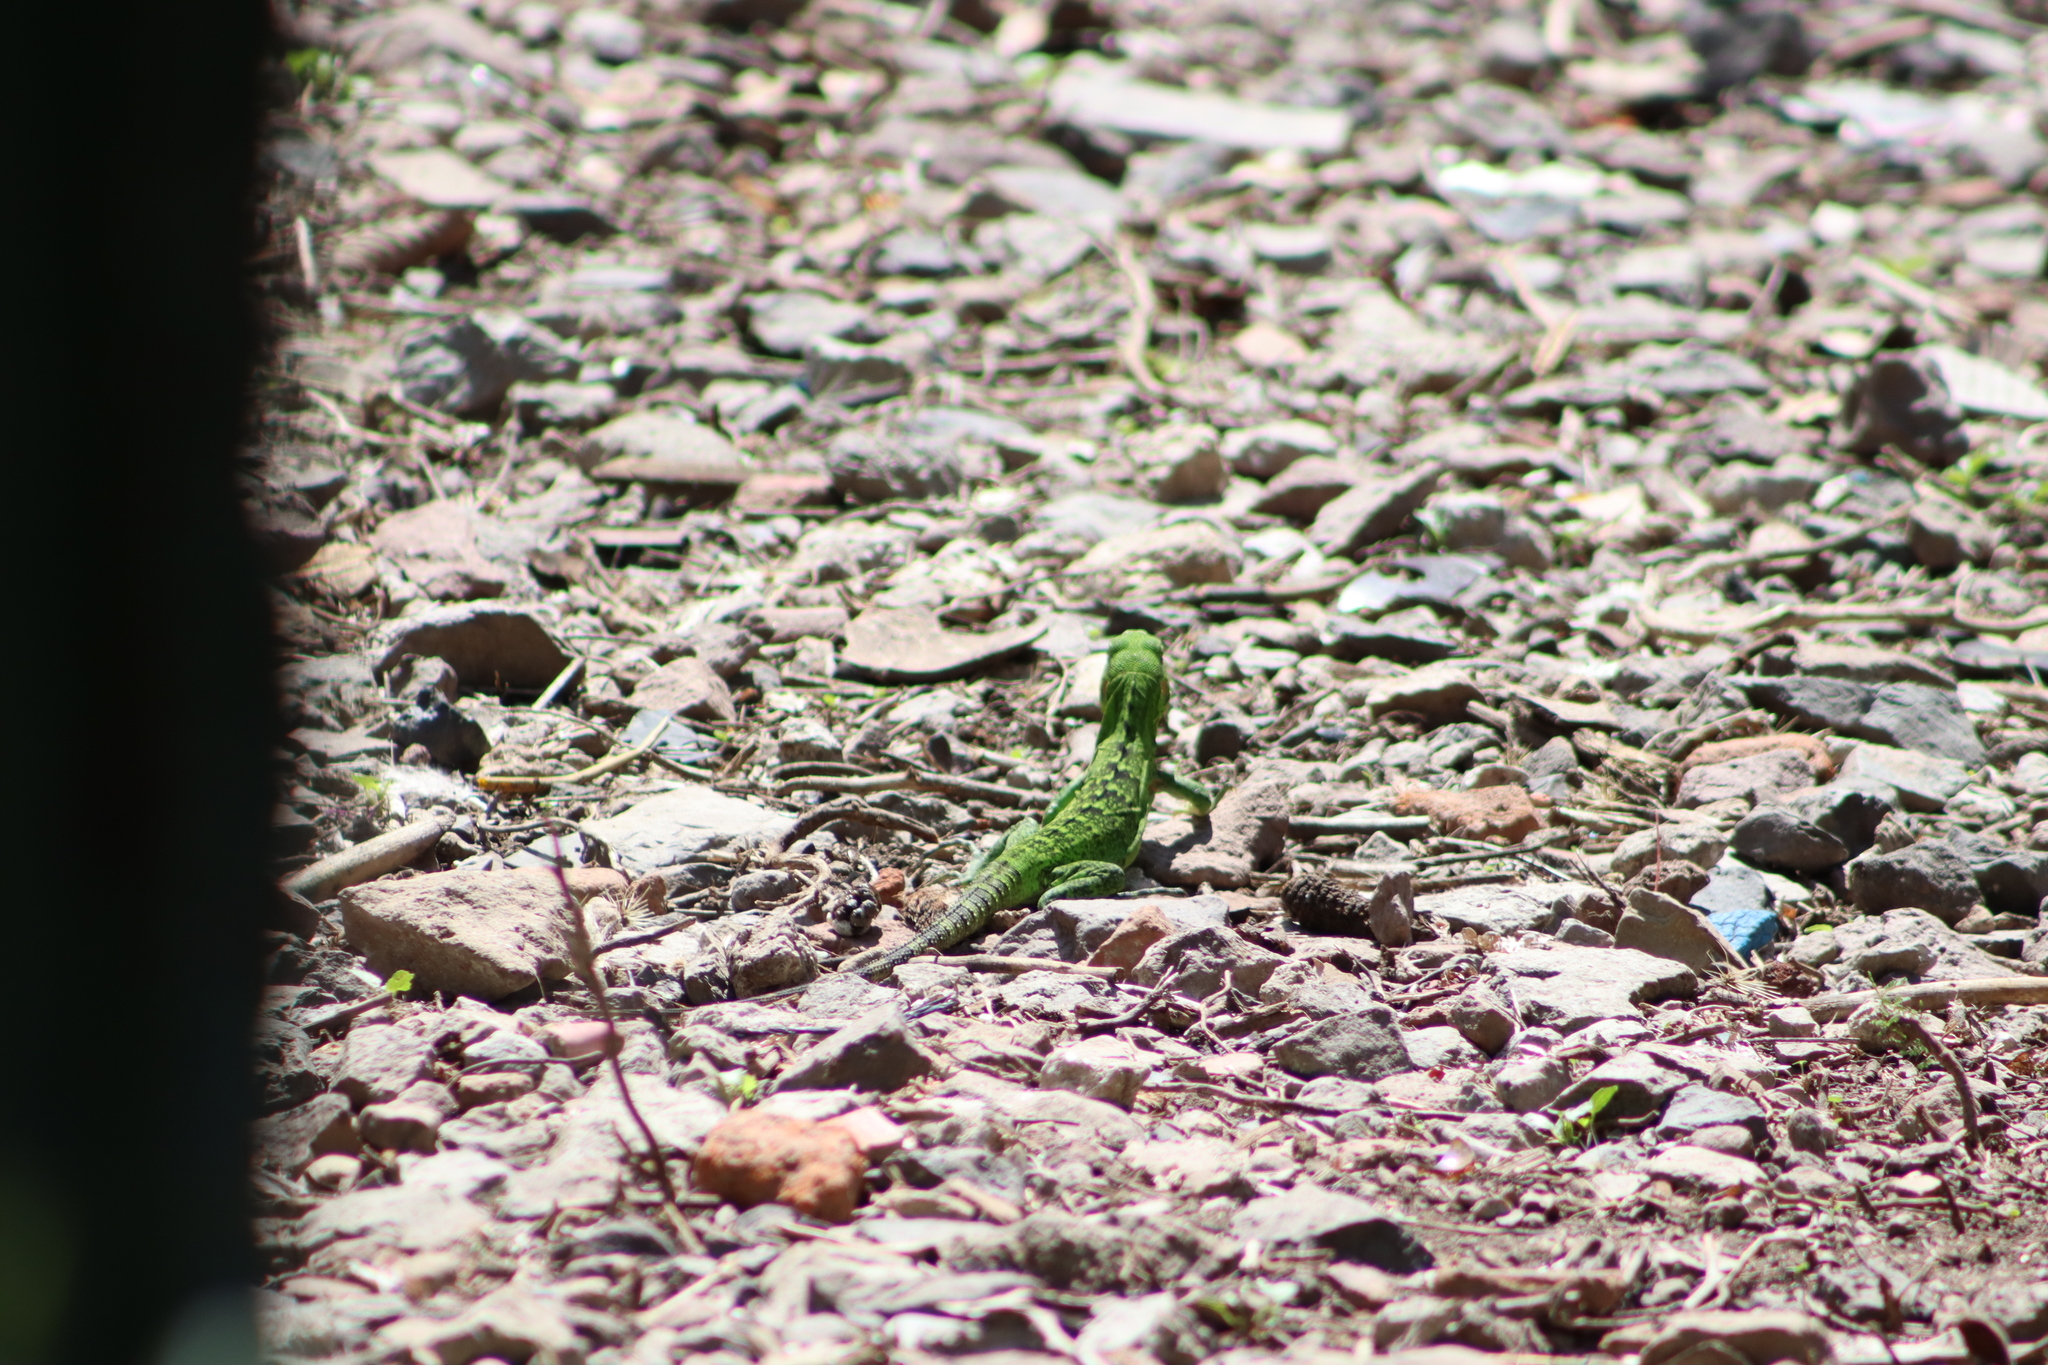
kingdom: Animalia
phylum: Chordata
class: Squamata
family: Iguanidae
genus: Ctenosaura
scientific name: Ctenosaura pectinata
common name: Guerreran spiny-tailed iguana
